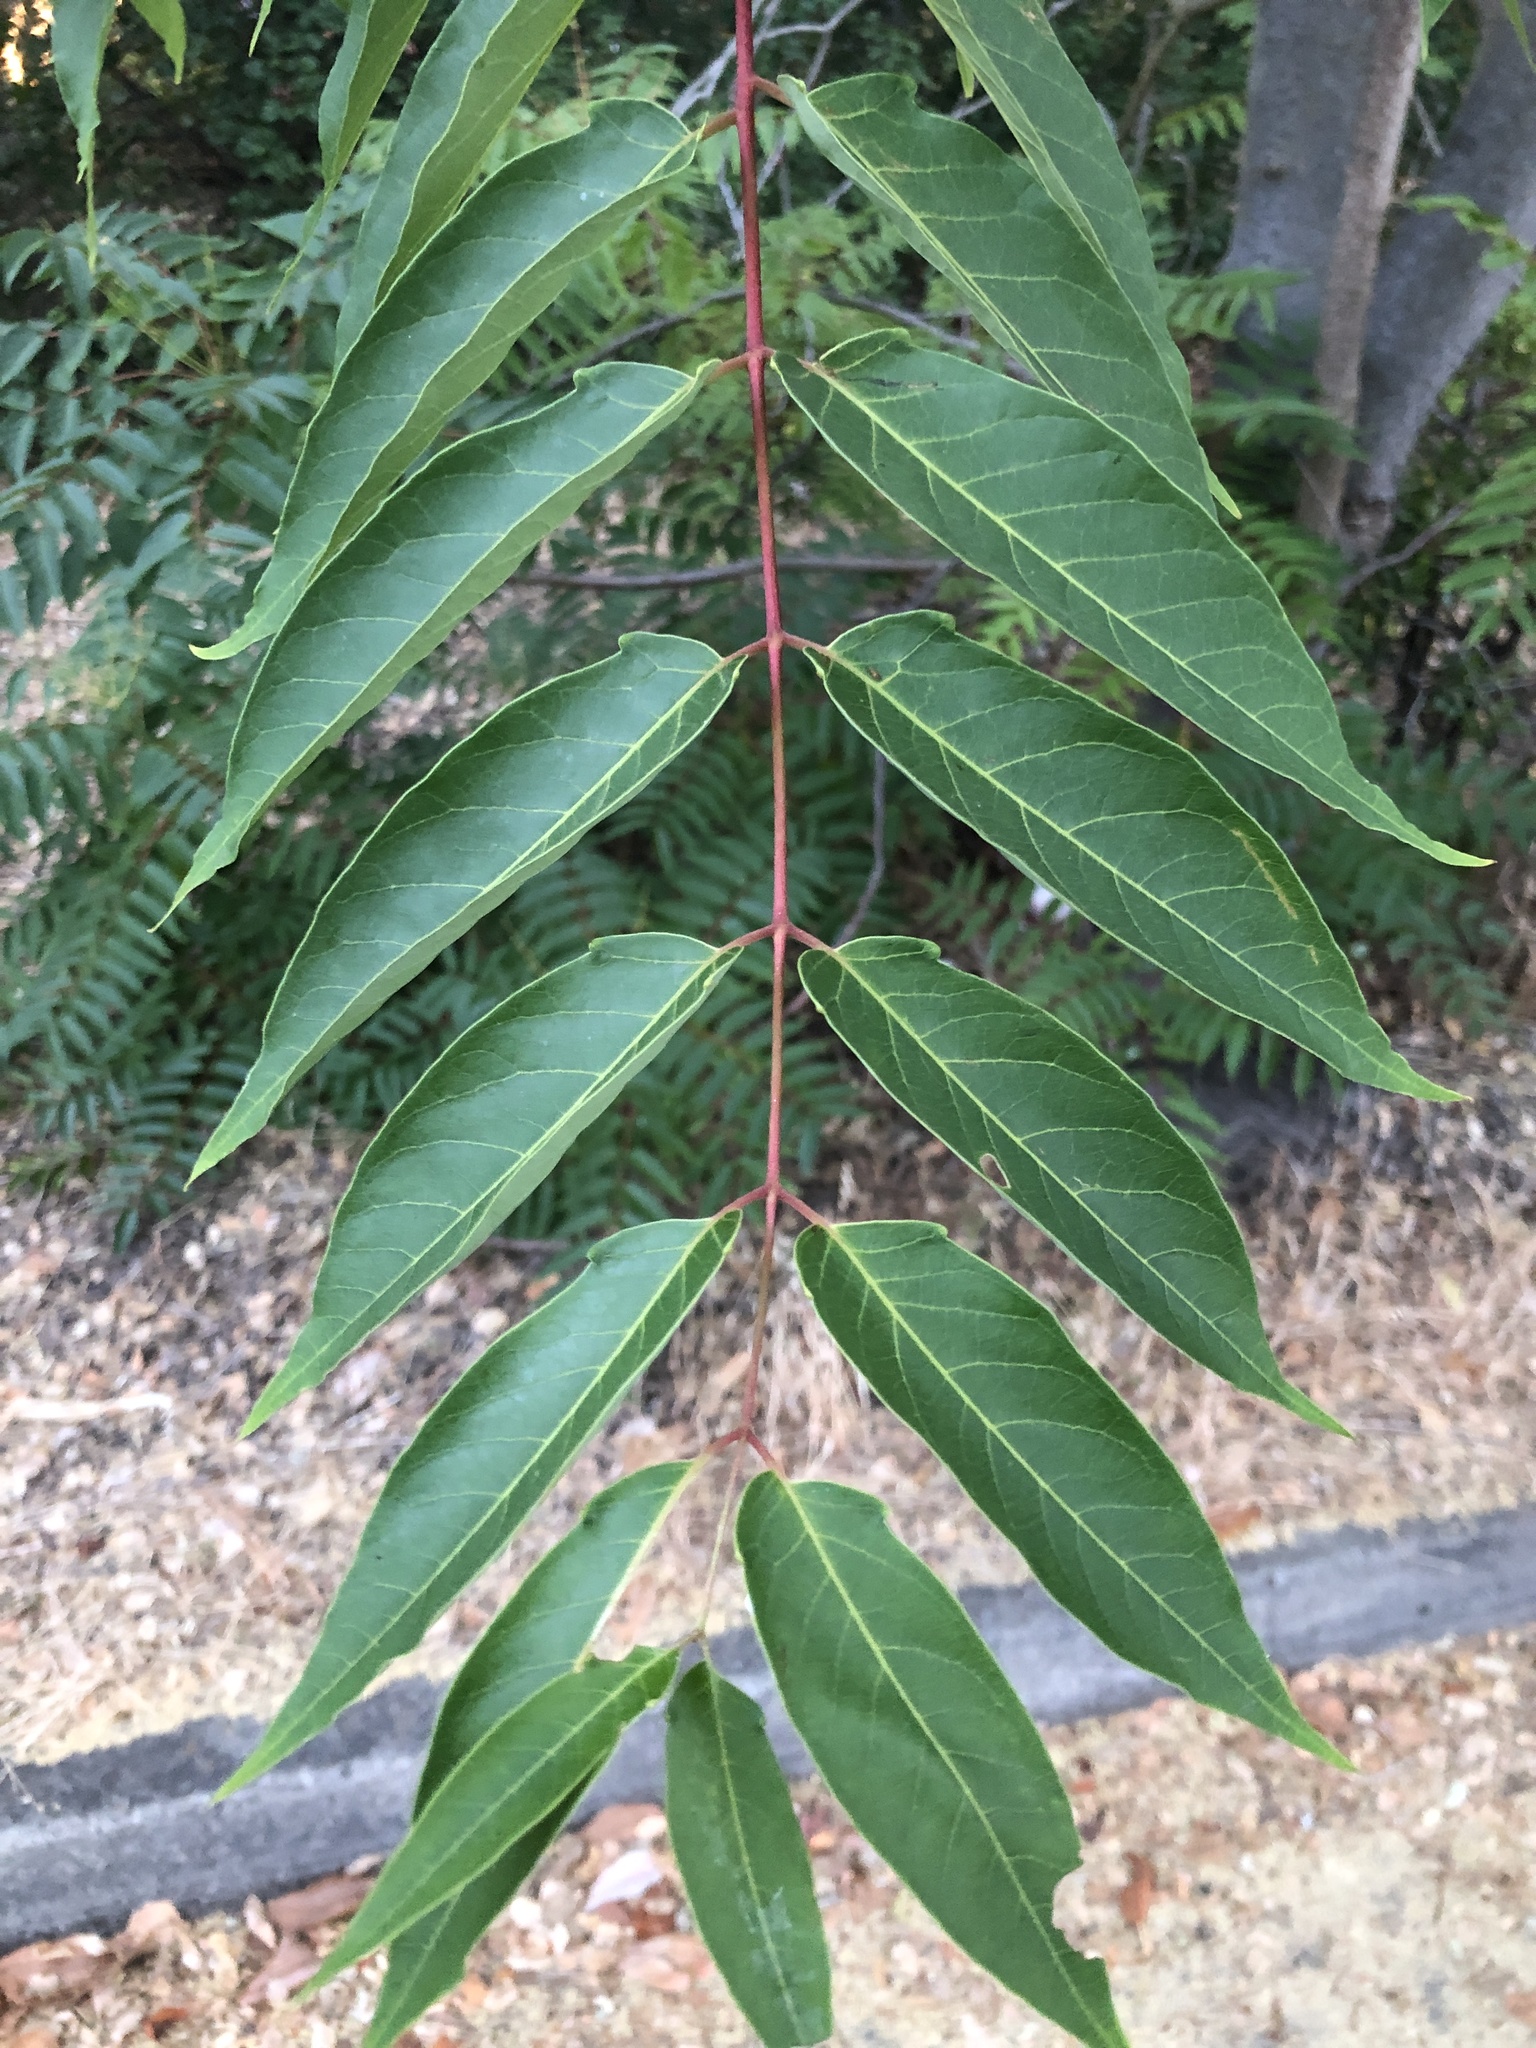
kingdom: Plantae
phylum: Tracheophyta
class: Magnoliopsida
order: Sapindales
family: Simaroubaceae
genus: Ailanthus
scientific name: Ailanthus altissima
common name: Tree-of-heaven
